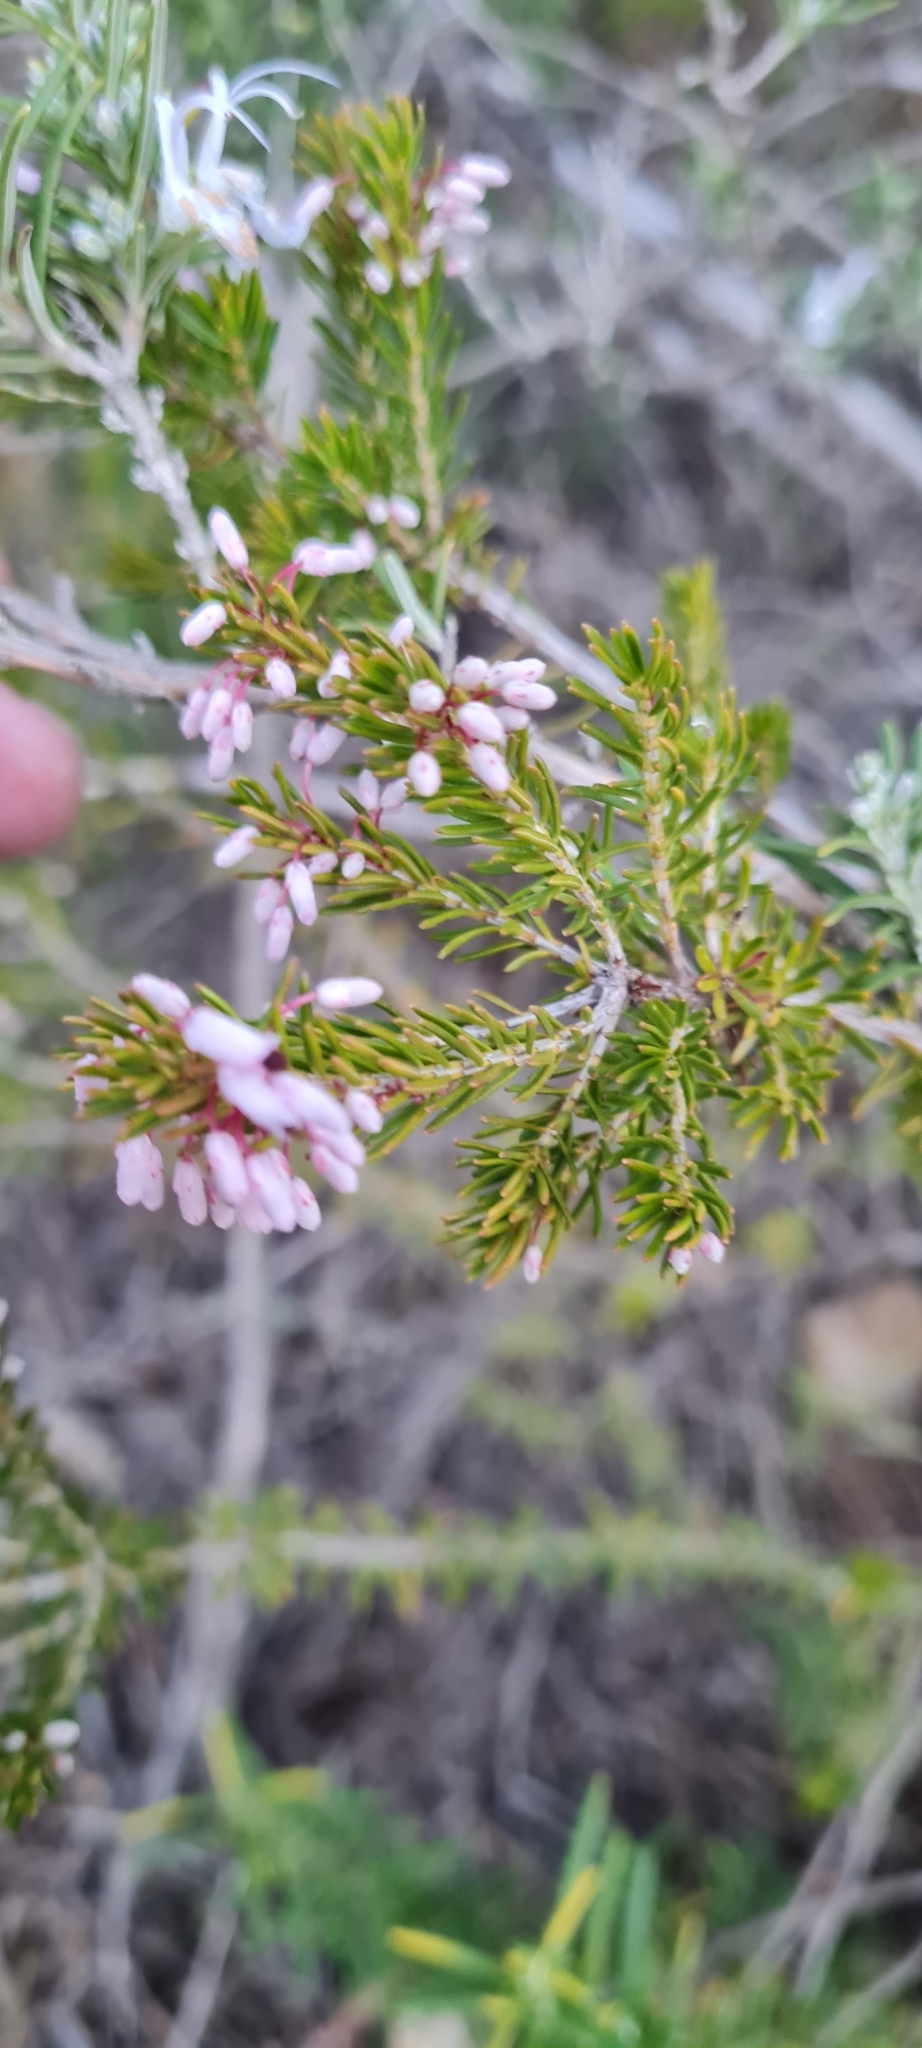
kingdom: Plantae
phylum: Tracheophyta
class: Magnoliopsida
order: Ericales
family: Ericaceae
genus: Erica
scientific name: Erica multiflora
